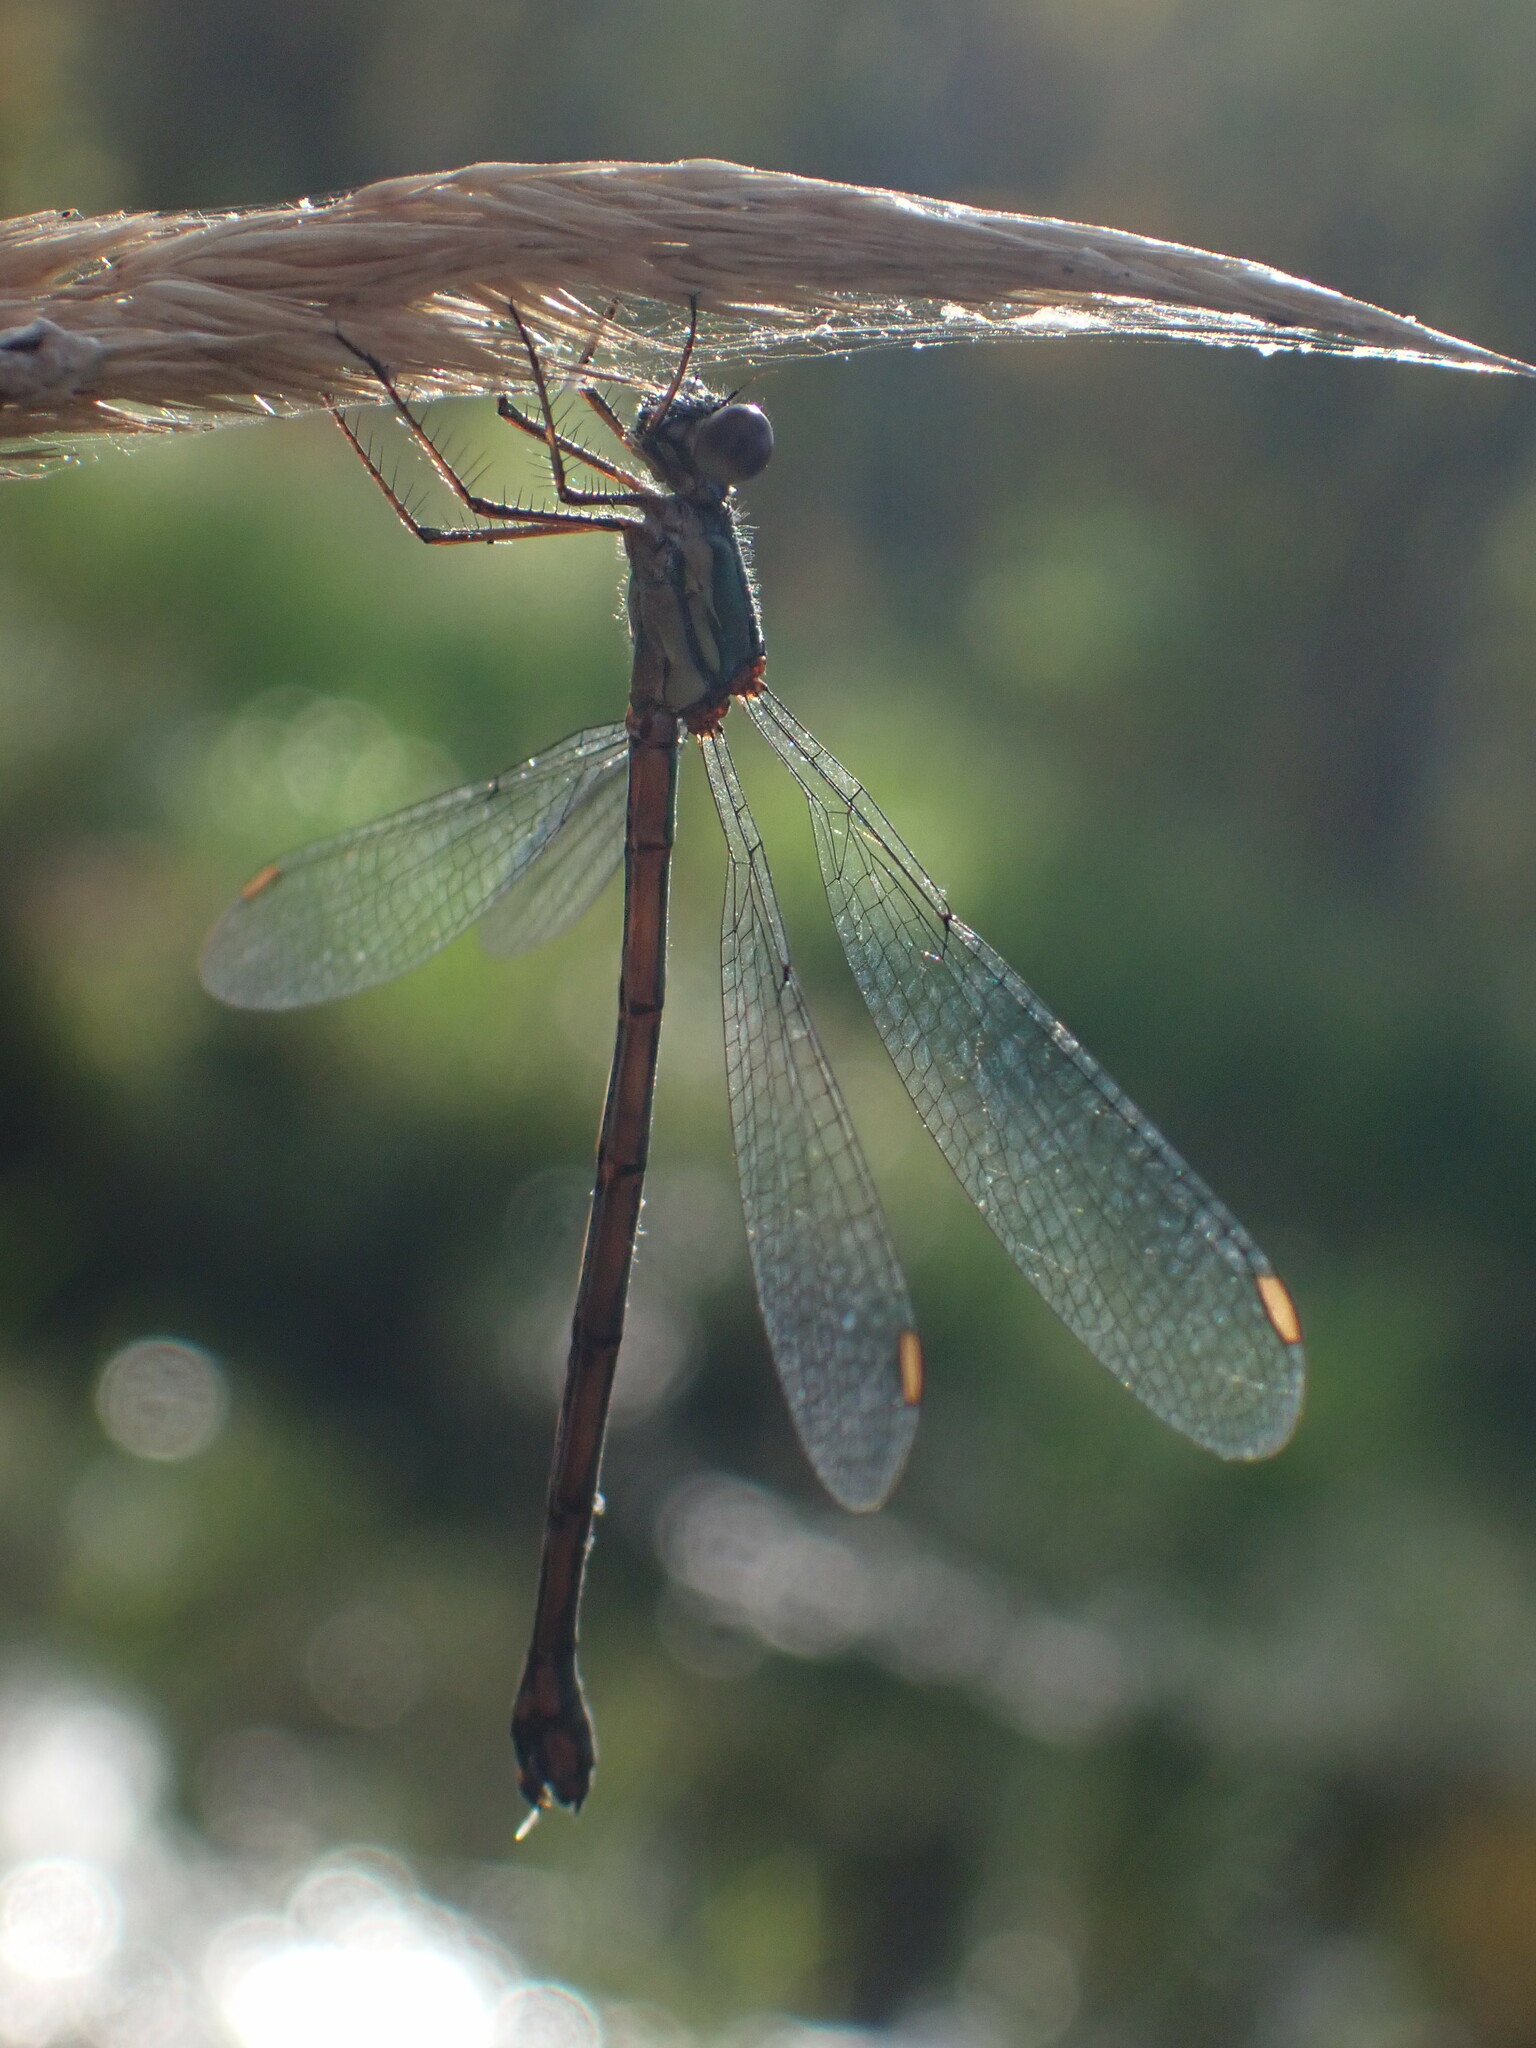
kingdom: Animalia
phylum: Arthropoda
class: Insecta
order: Odonata
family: Lestidae
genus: Chalcolestes
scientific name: Chalcolestes viridis
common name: Green emerald damselfly
